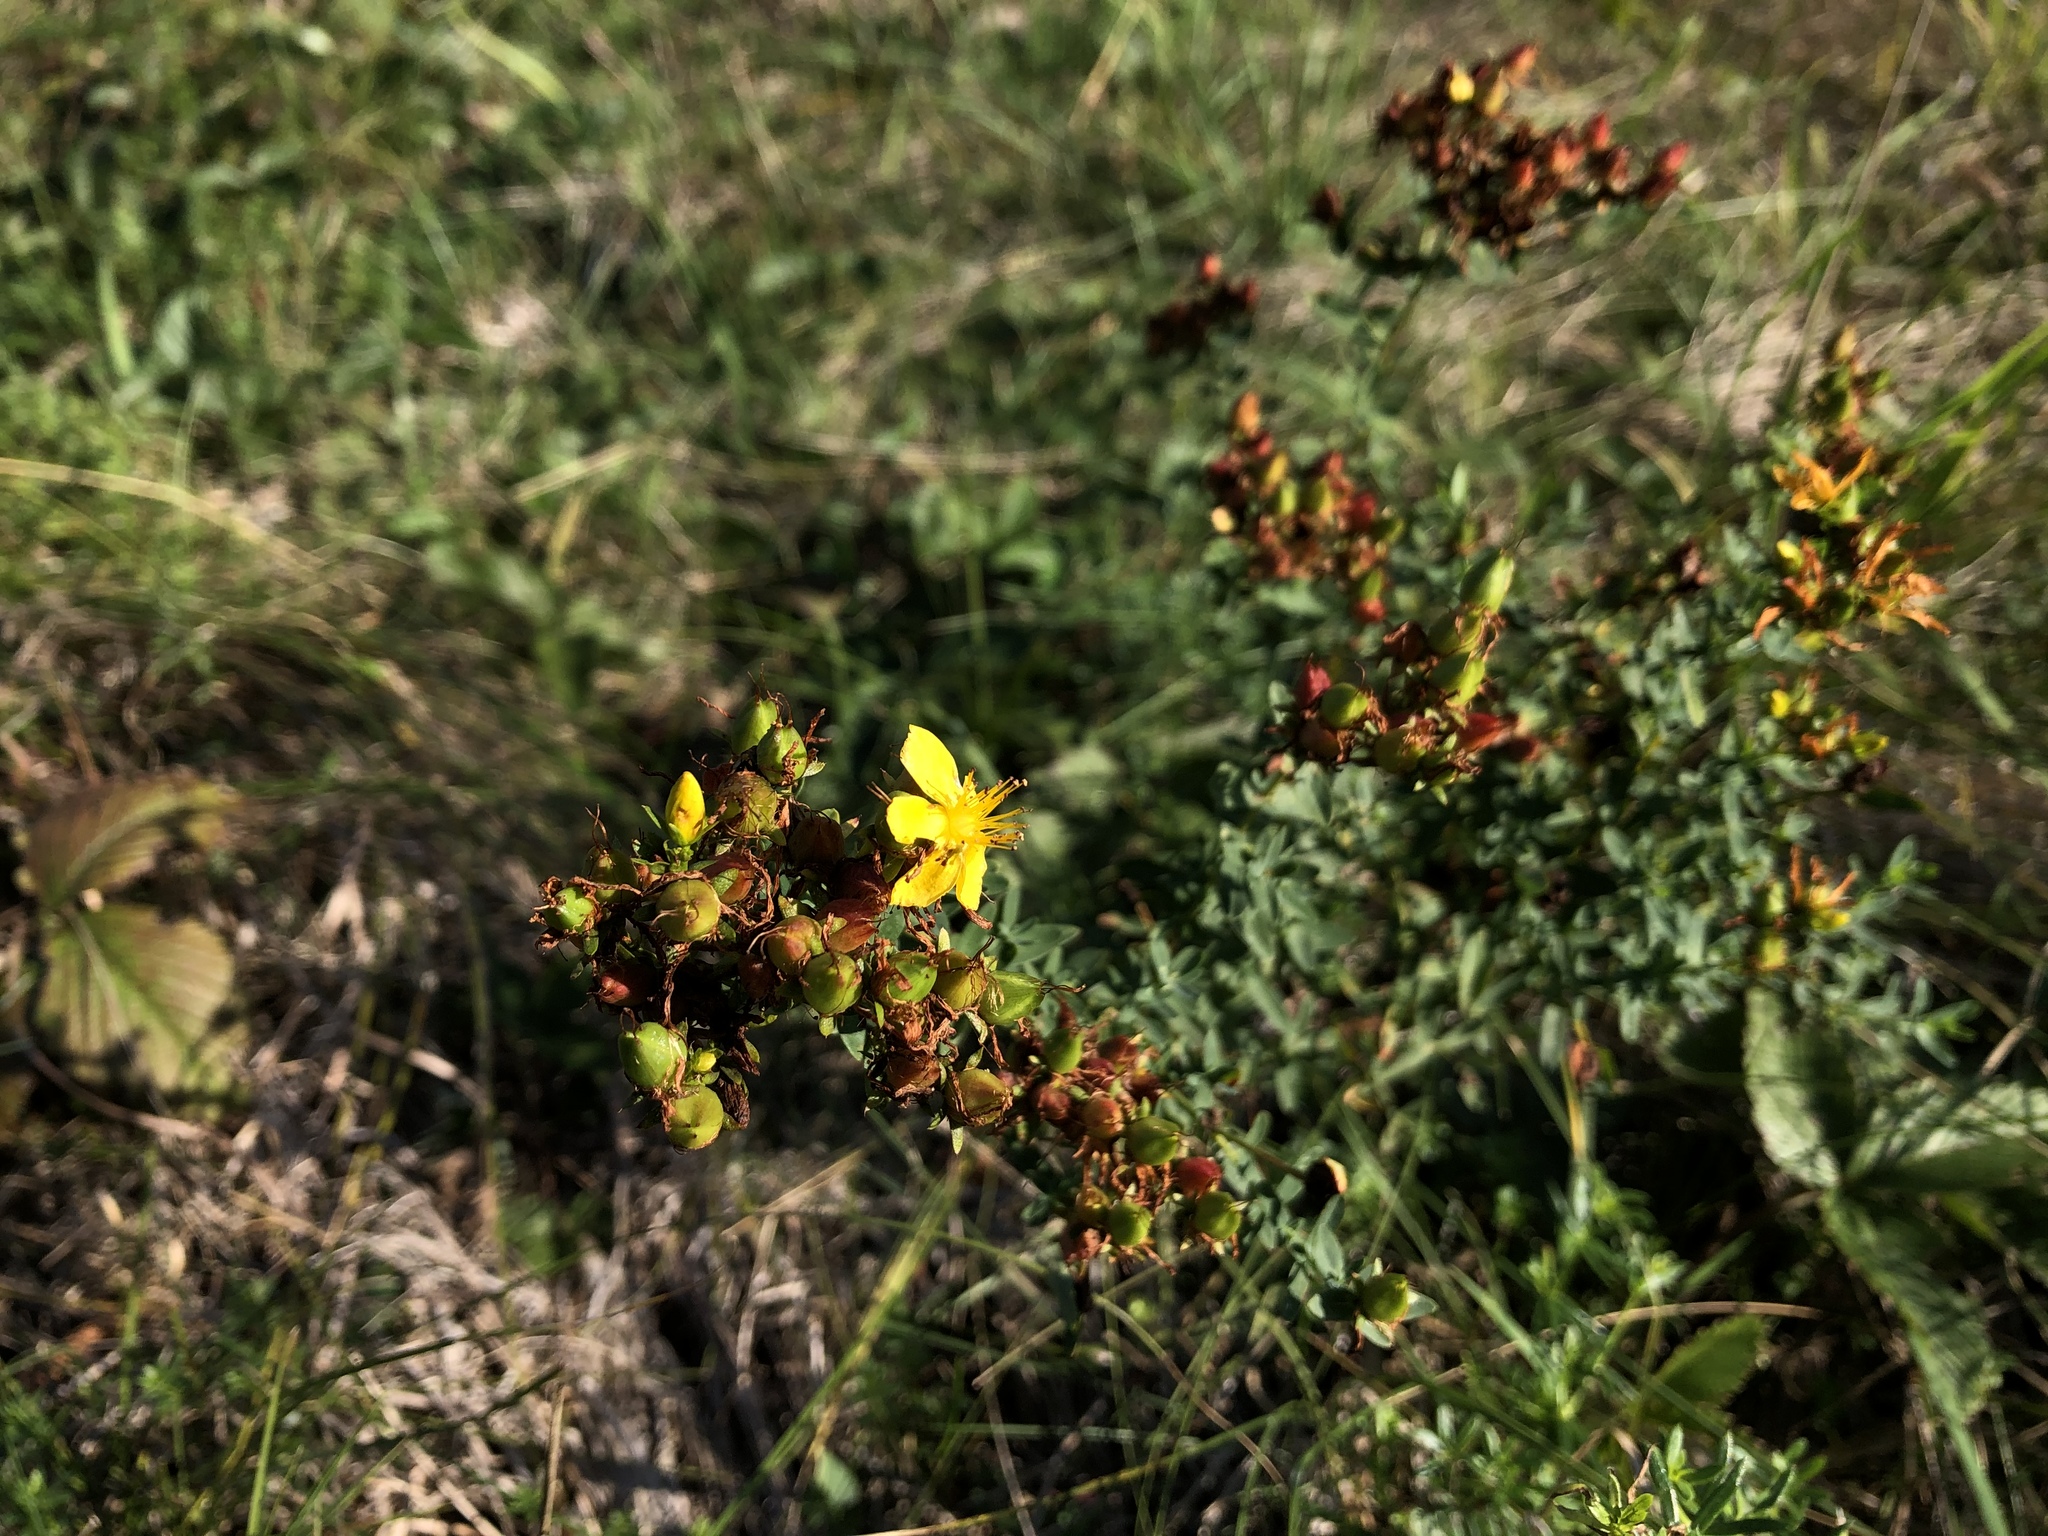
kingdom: Plantae
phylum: Tracheophyta
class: Magnoliopsida
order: Malpighiales
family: Hypericaceae
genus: Hypericum
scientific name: Hypericum perforatum
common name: Common st. johnswort
